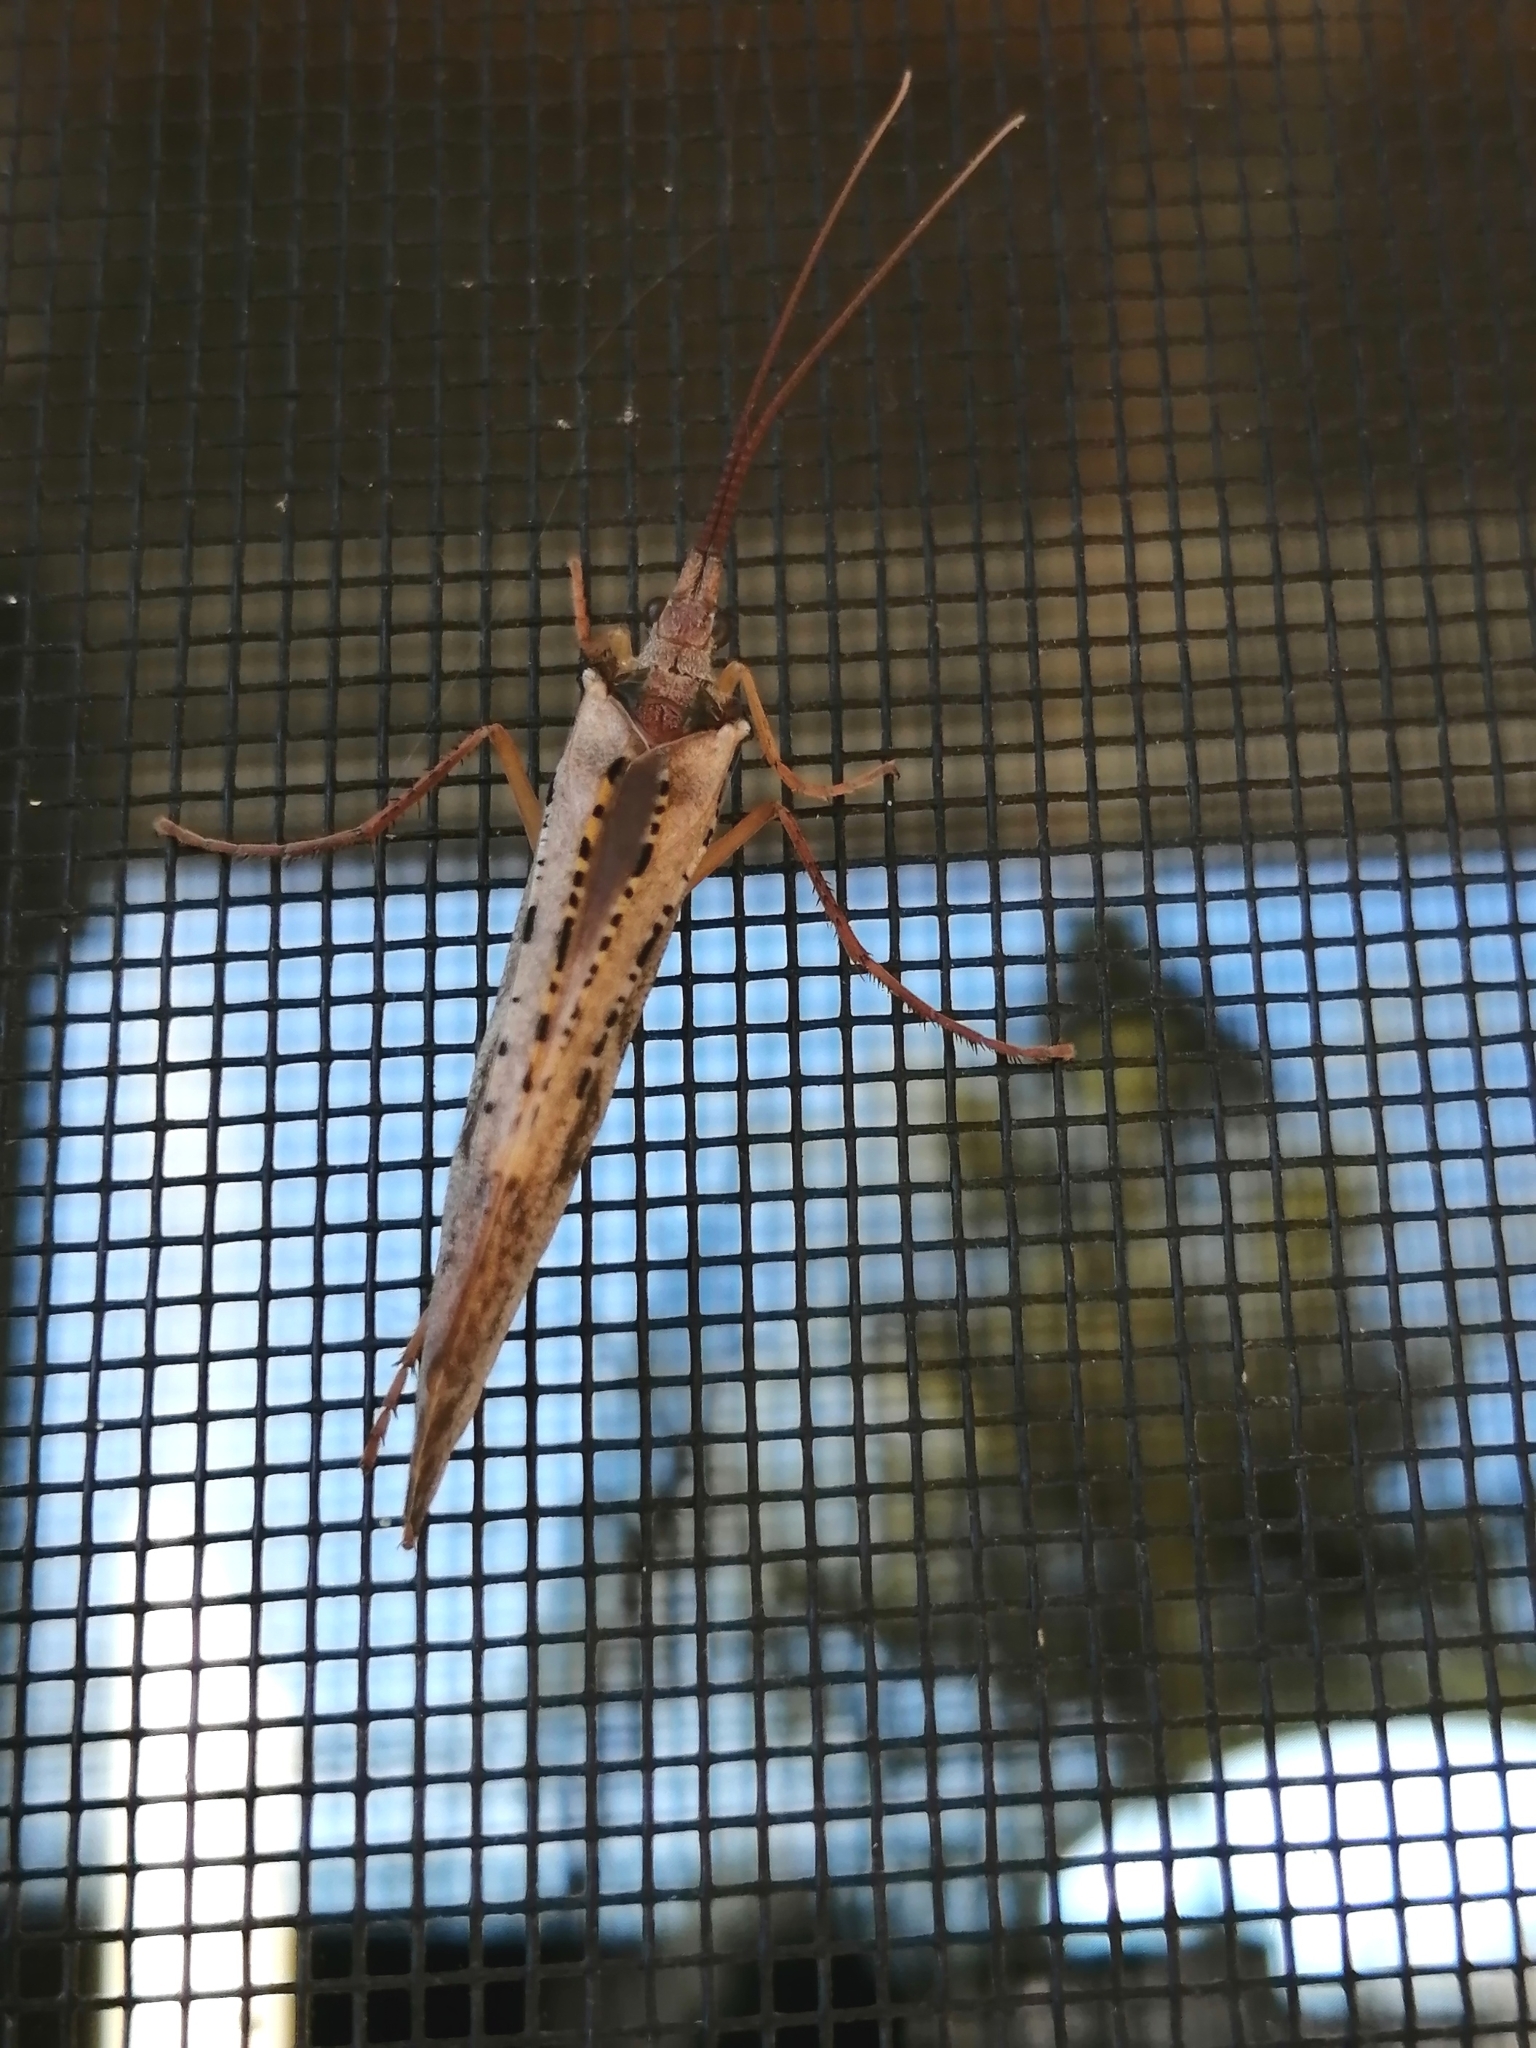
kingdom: Animalia
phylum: Arthropoda
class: Insecta
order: Trichoptera
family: Limnephilidae
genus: Nemotaulius
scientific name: Nemotaulius hostilis
